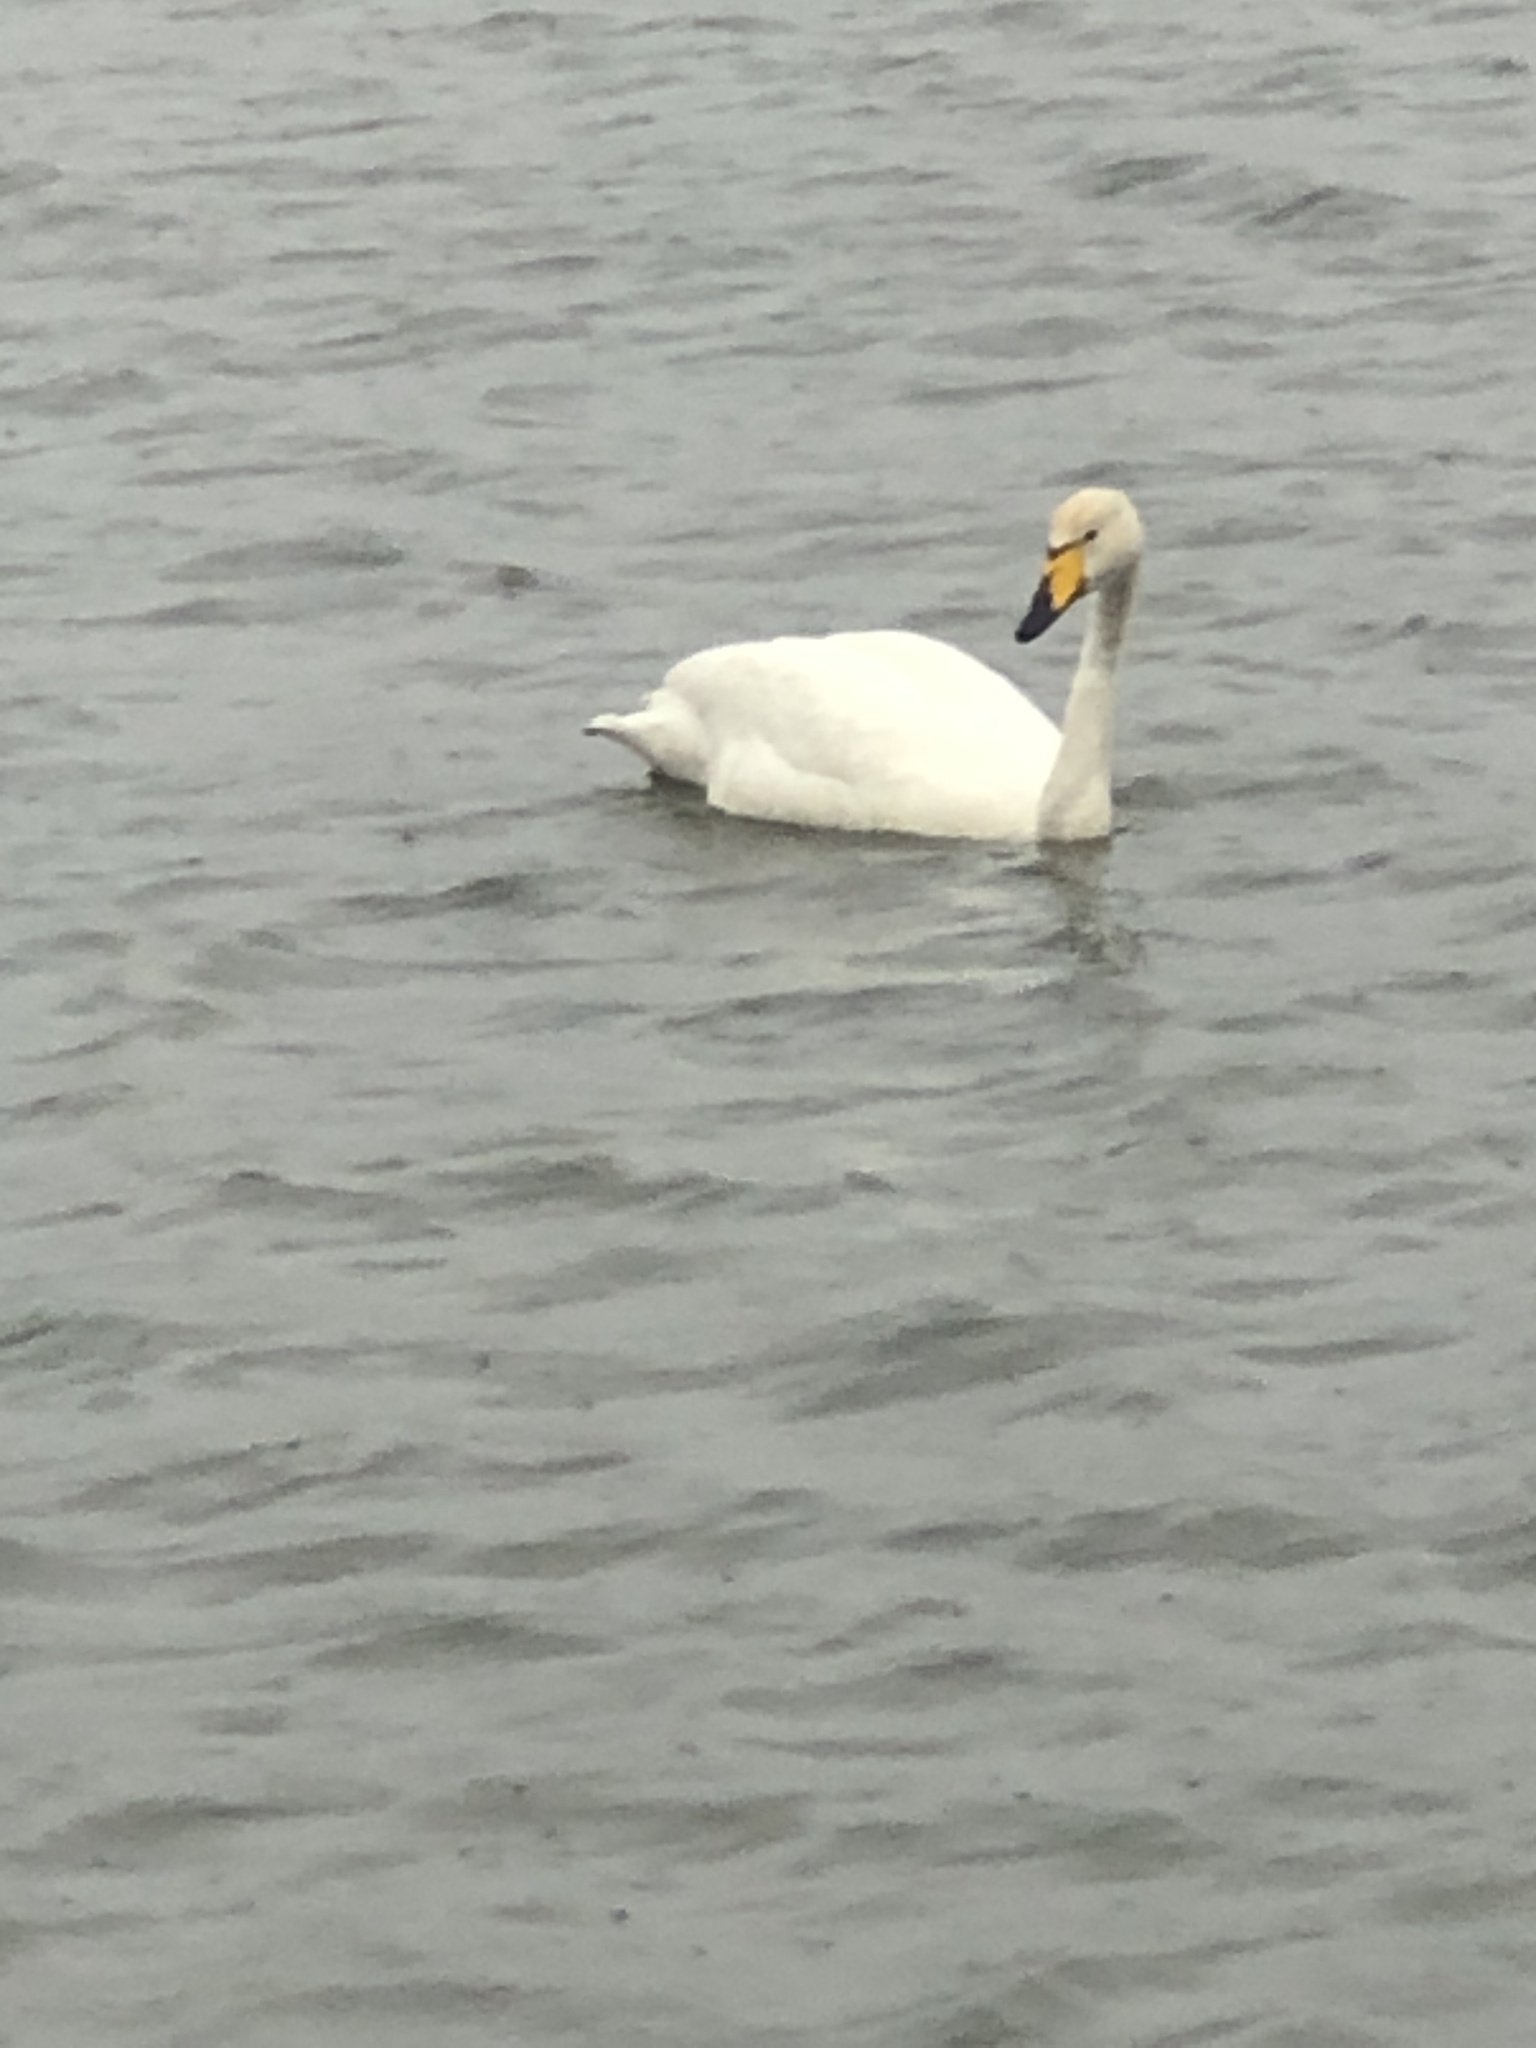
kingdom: Animalia
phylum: Chordata
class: Aves
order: Anseriformes
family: Anatidae
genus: Cygnus
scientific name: Cygnus cygnus
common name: Whooper swan
